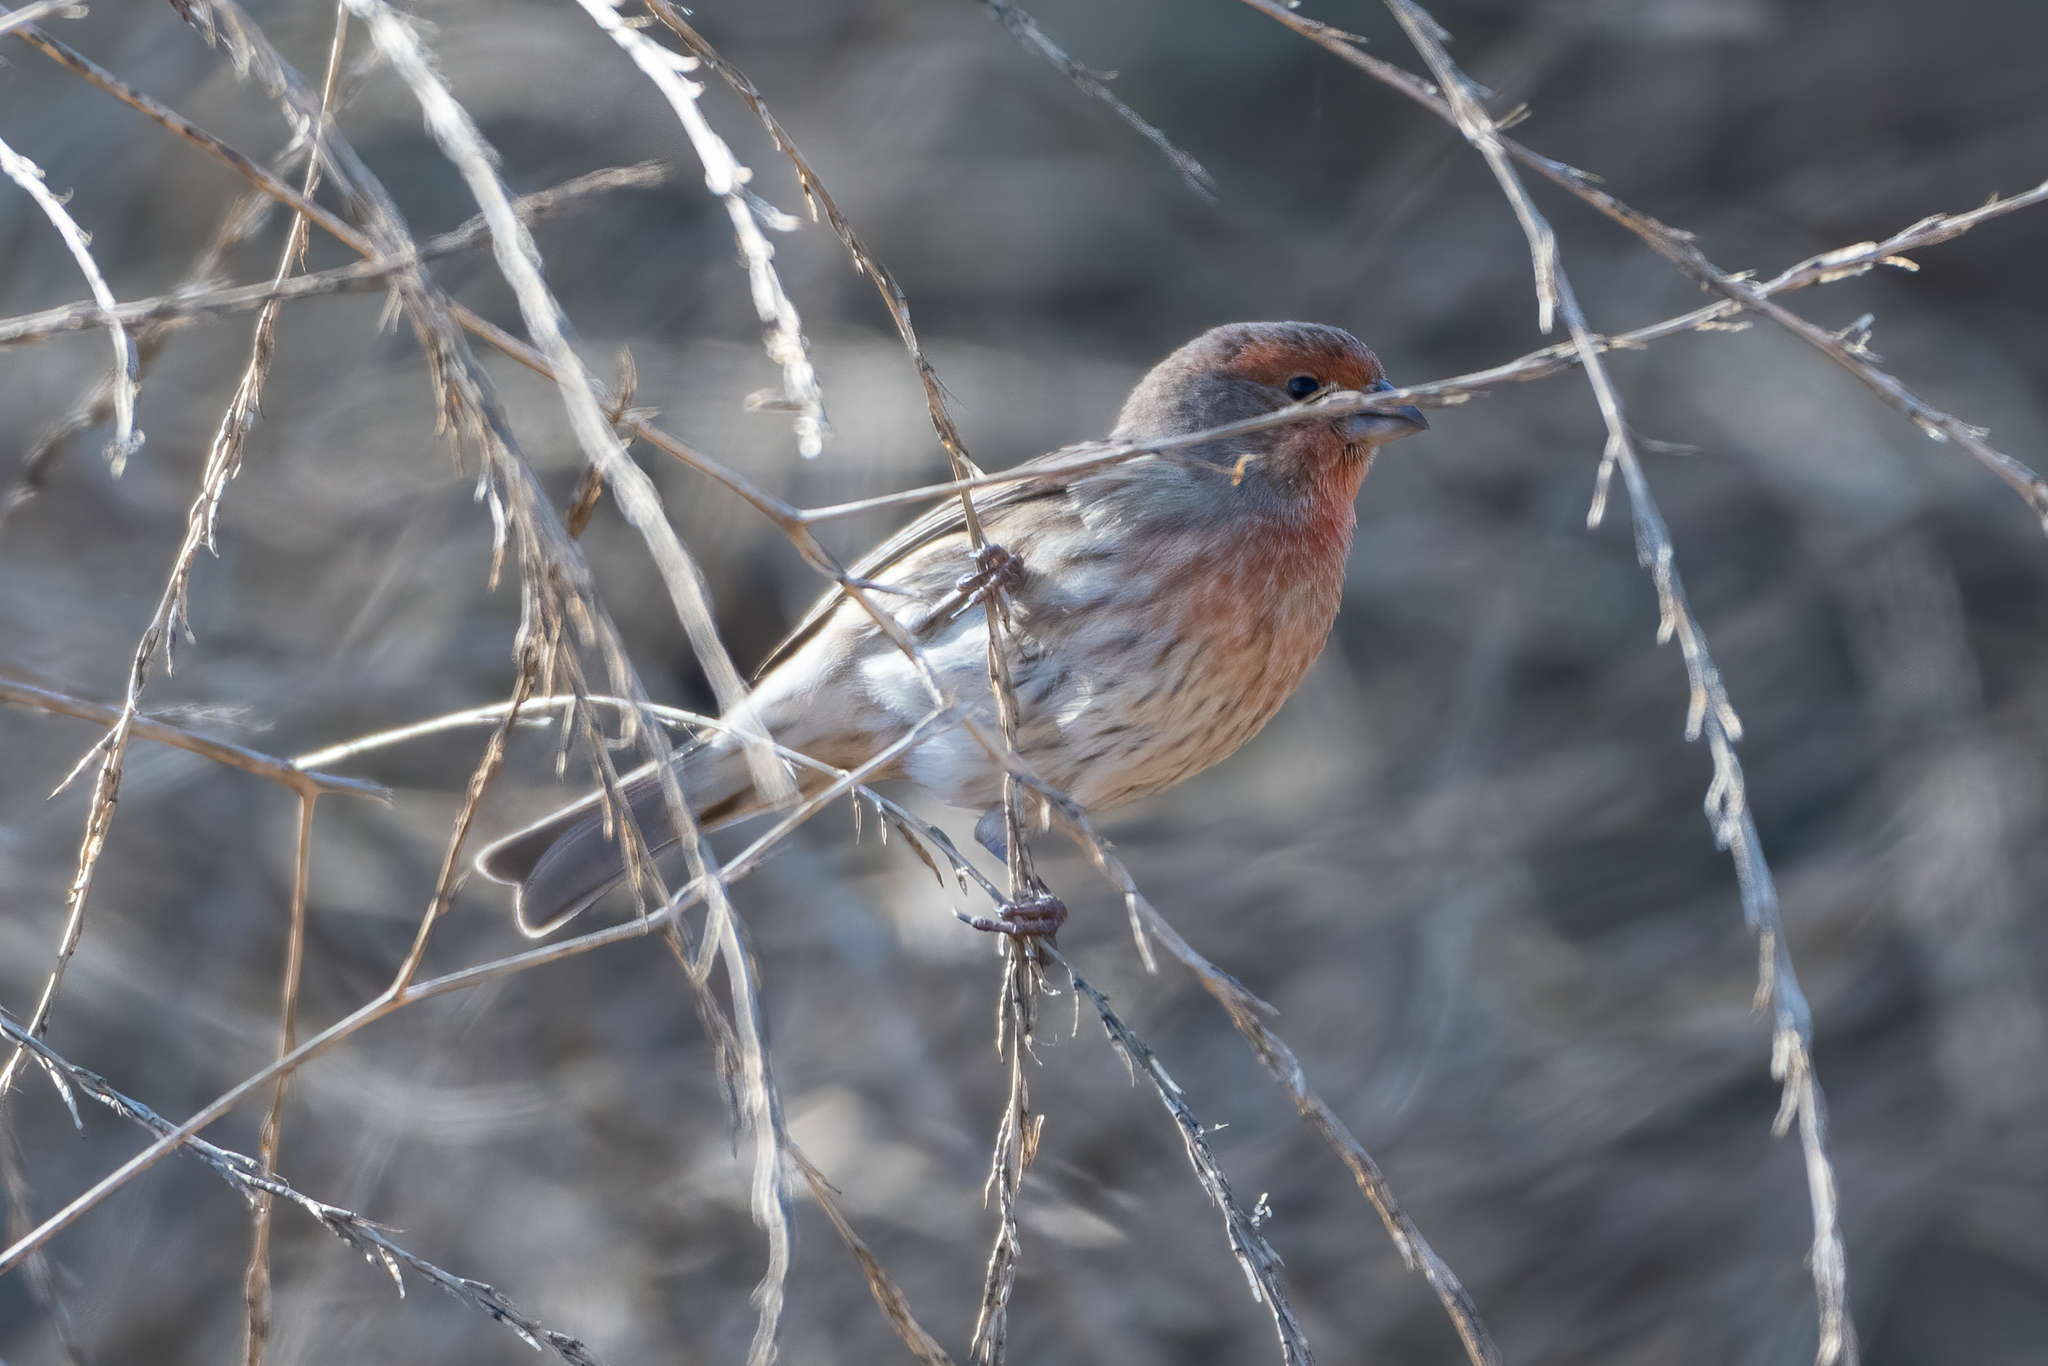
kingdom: Animalia
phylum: Chordata
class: Aves
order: Passeriformes
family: Fringillidae
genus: Haemorhous
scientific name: Haemorhous mexicanus
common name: House finch
